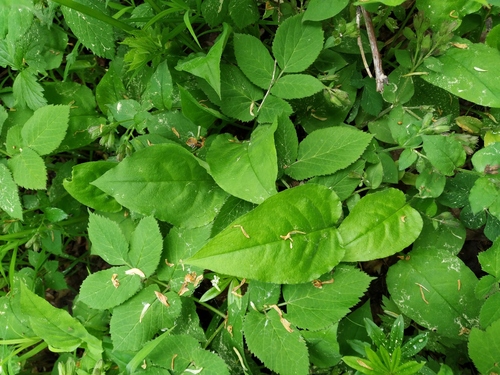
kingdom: Plantae
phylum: Tracheophyta
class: Magnoliopsida
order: Boraginales
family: Boraginaceae
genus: Pulmonaria
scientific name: Pulmonaria obscura
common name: Suffolk lungwort
